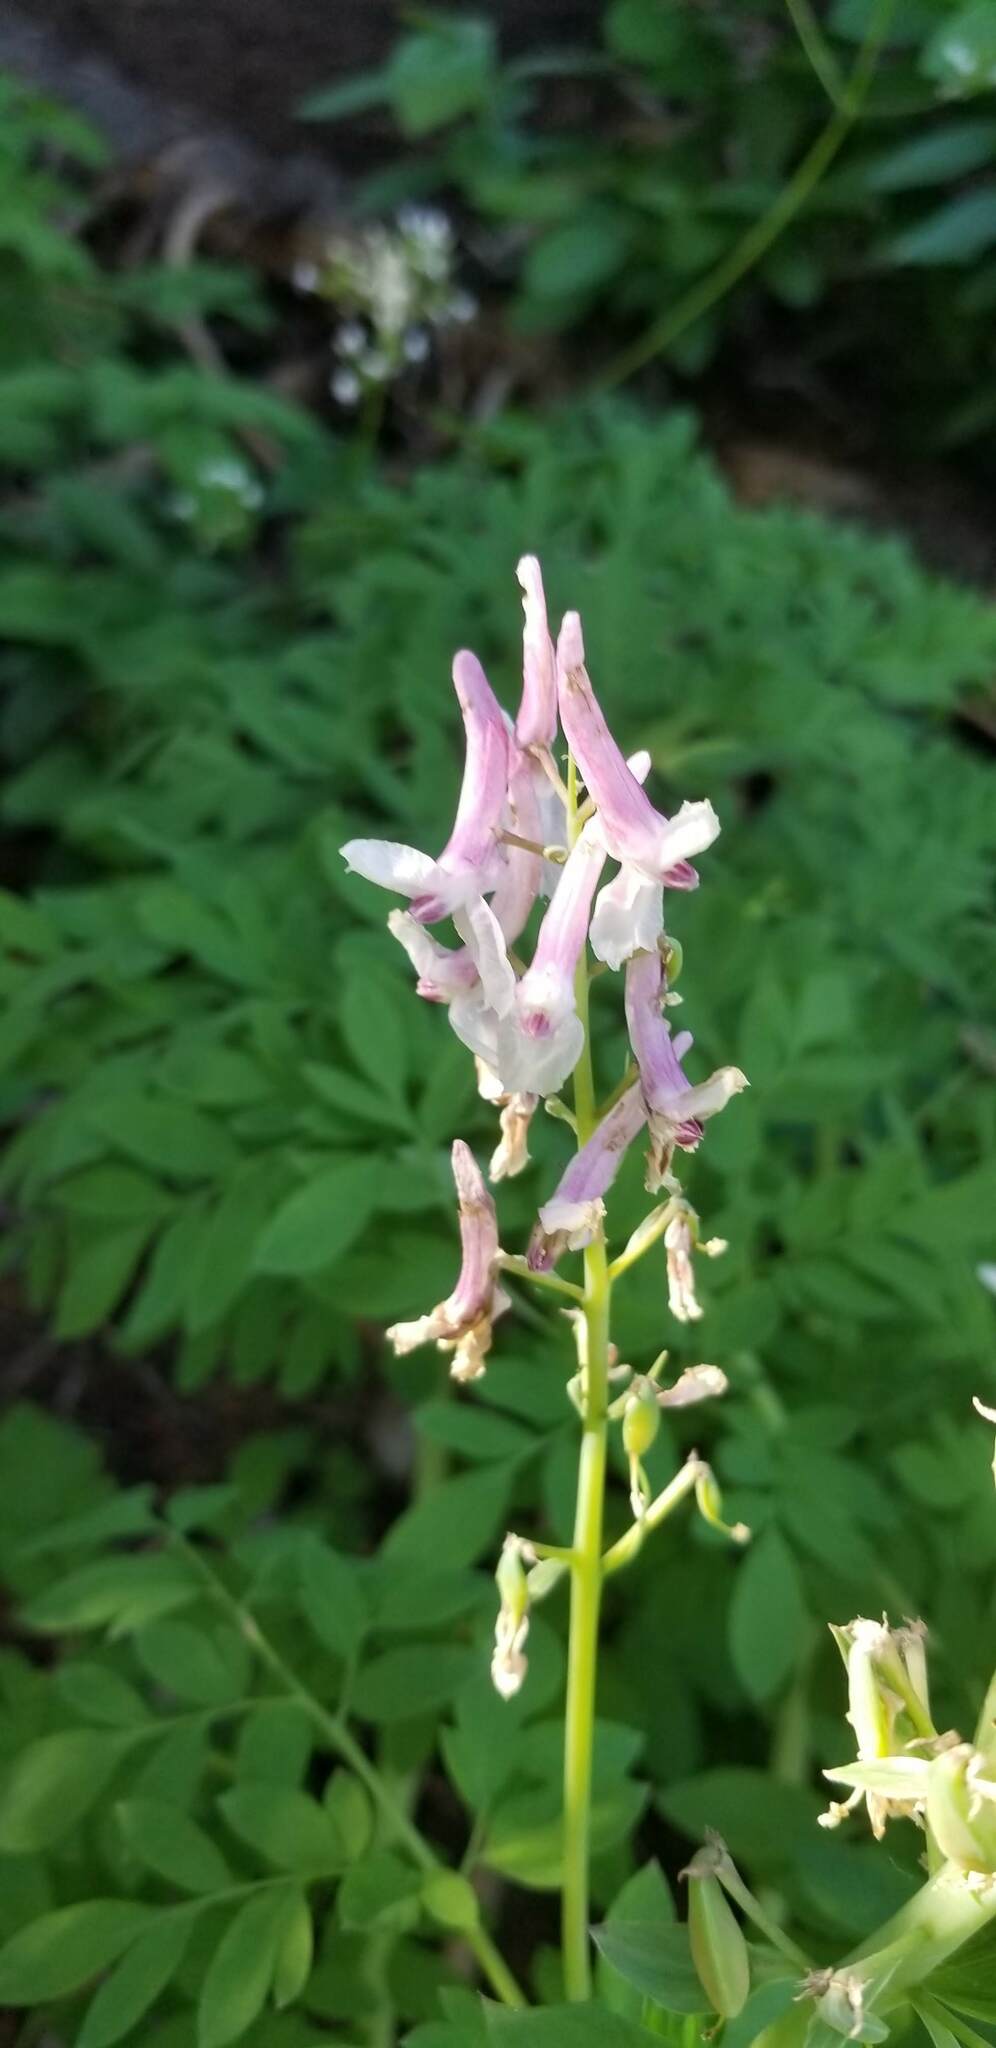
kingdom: Plantae
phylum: Tracheophyta
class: Magnoliopsida
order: Ranunculales
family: Papaveraceae
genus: Corydalis
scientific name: Corydalis caseana
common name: Fitweed
